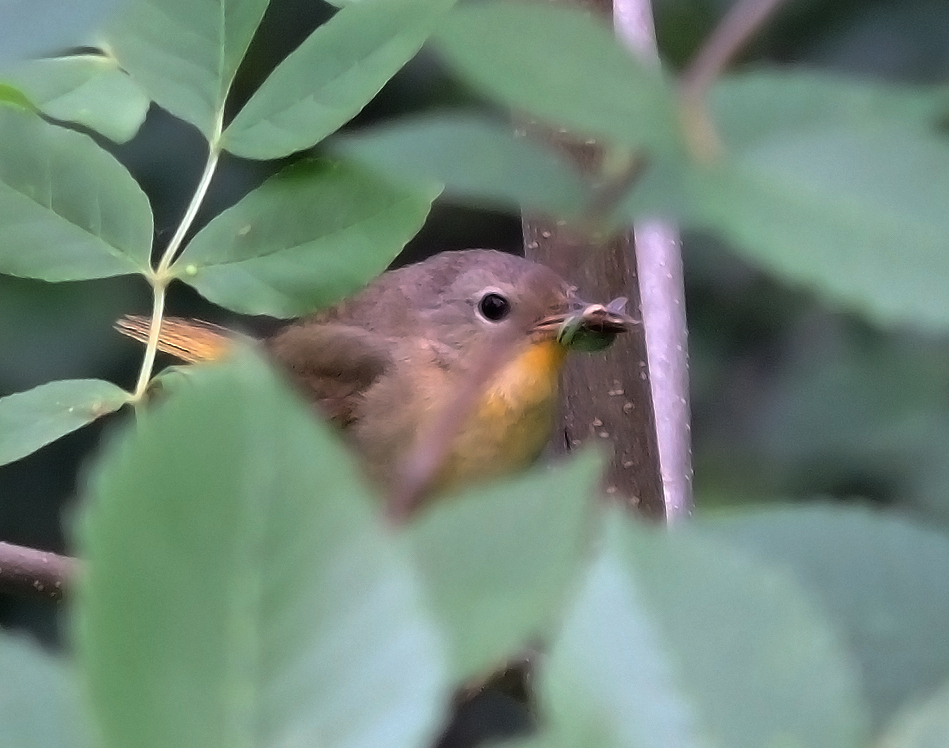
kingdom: Animalia
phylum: Chordata
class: Aves
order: Passeriformes
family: Parulidae
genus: Geothlypis
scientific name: Geothlypis trichas
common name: Common yellowthroat
